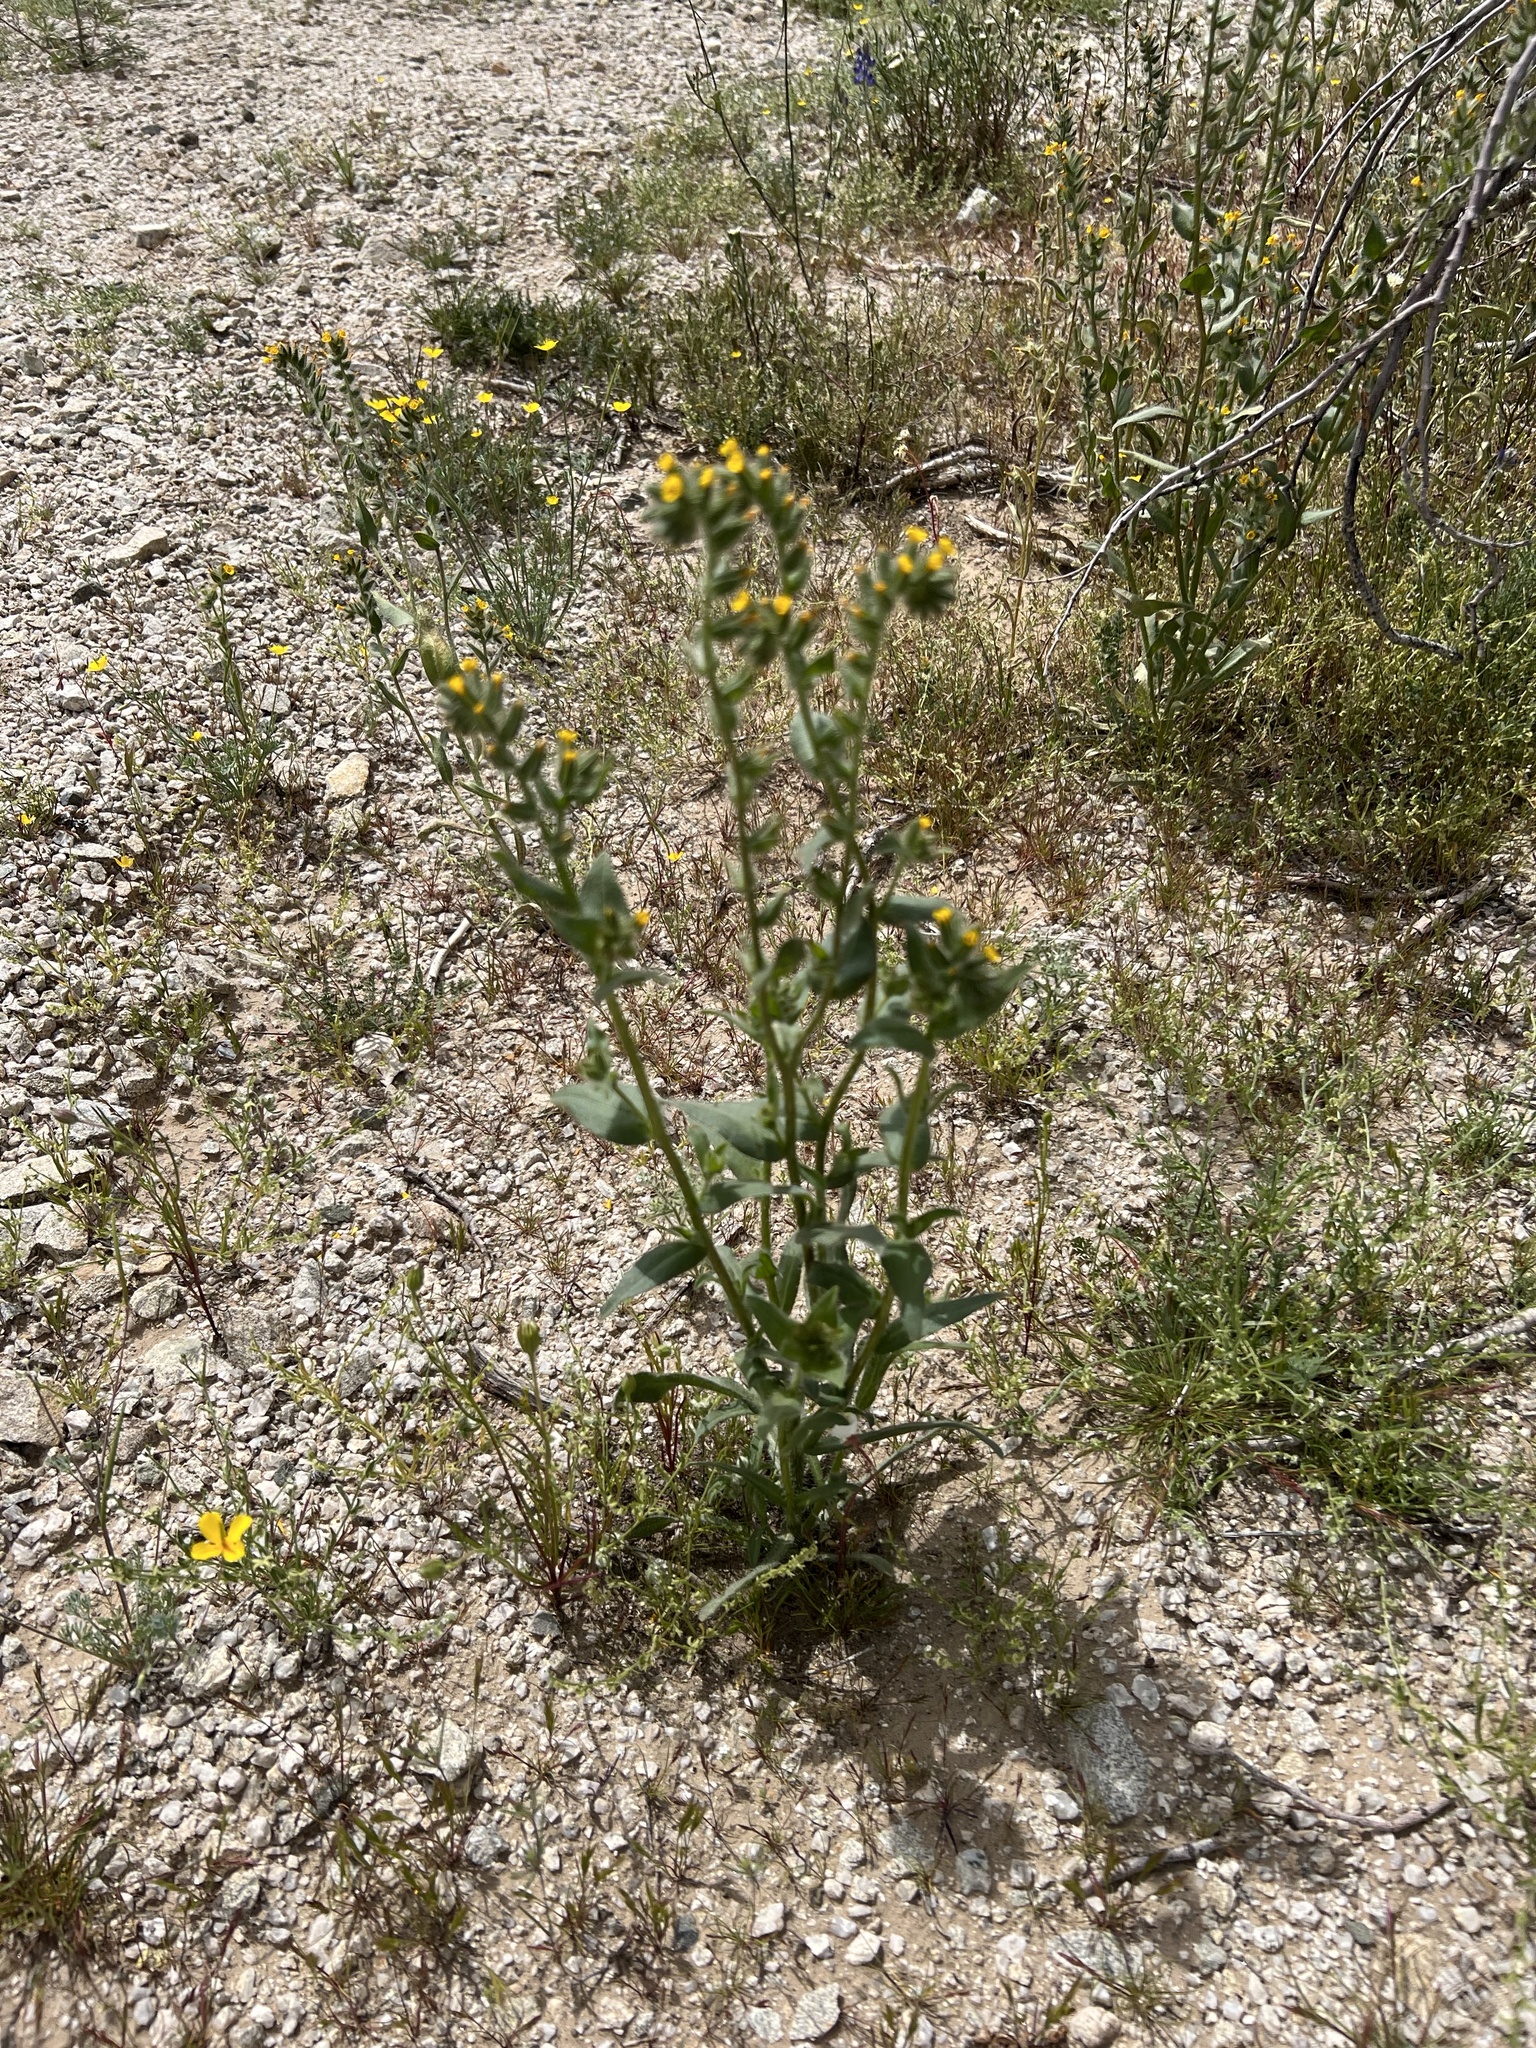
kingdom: Plantae
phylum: Tracheophyta
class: Magnoliopsida
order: Boraginales
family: Boraginaceae
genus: Amsinckia
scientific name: Amsinckia tessellata
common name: Tessellate fiddleneck
